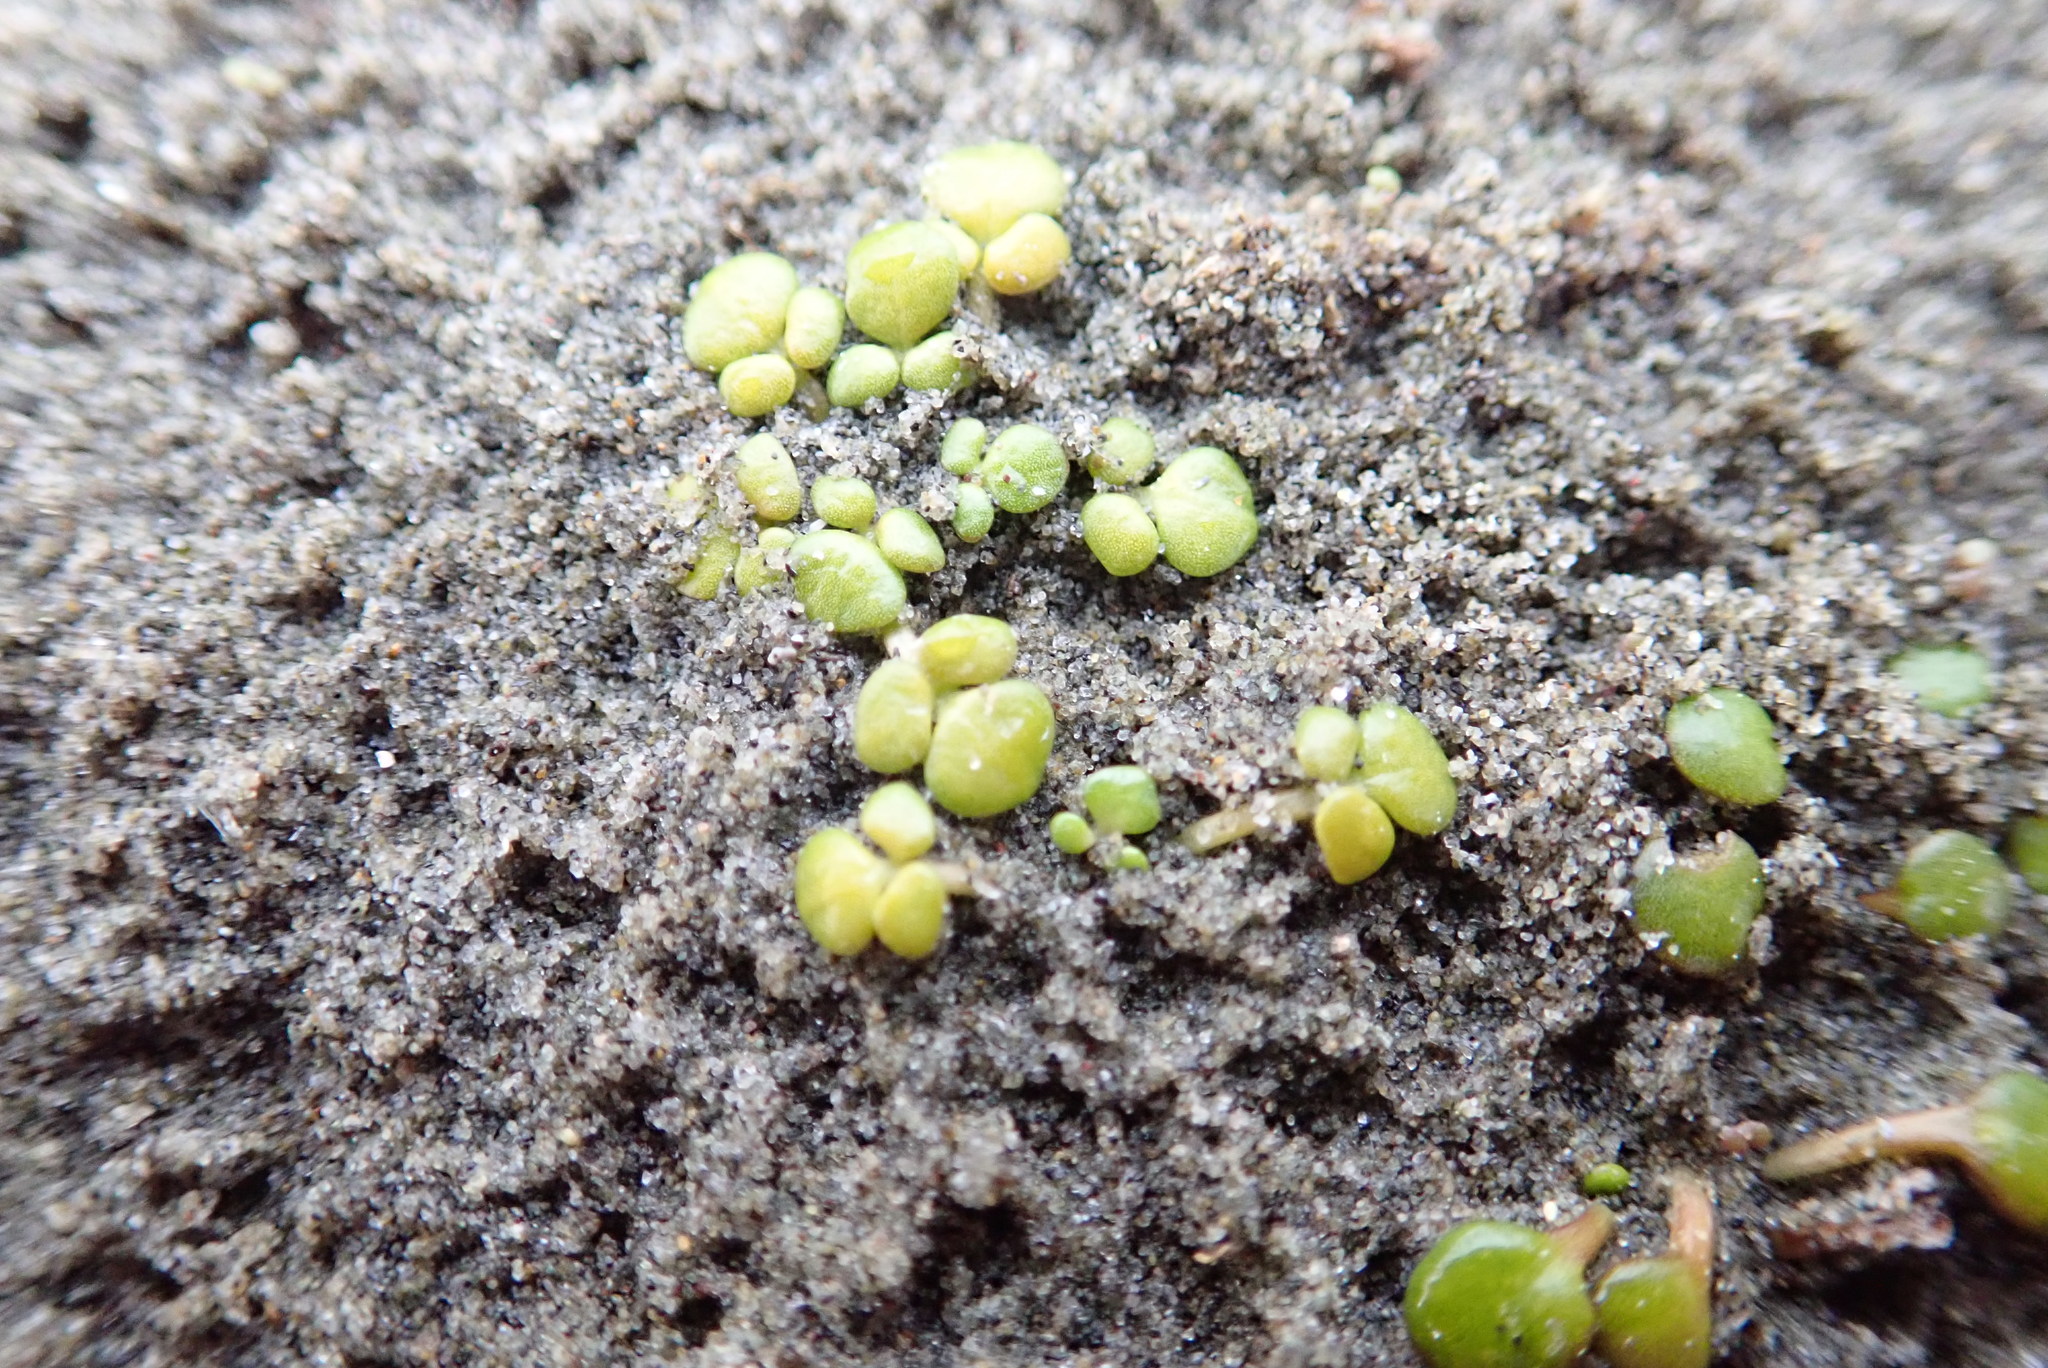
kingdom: Plantae
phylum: Tracheophyta
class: Magnoliopsida
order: Ranunculales
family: Ranunculaceae
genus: Ranunculus
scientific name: Ranunculus acaulis
